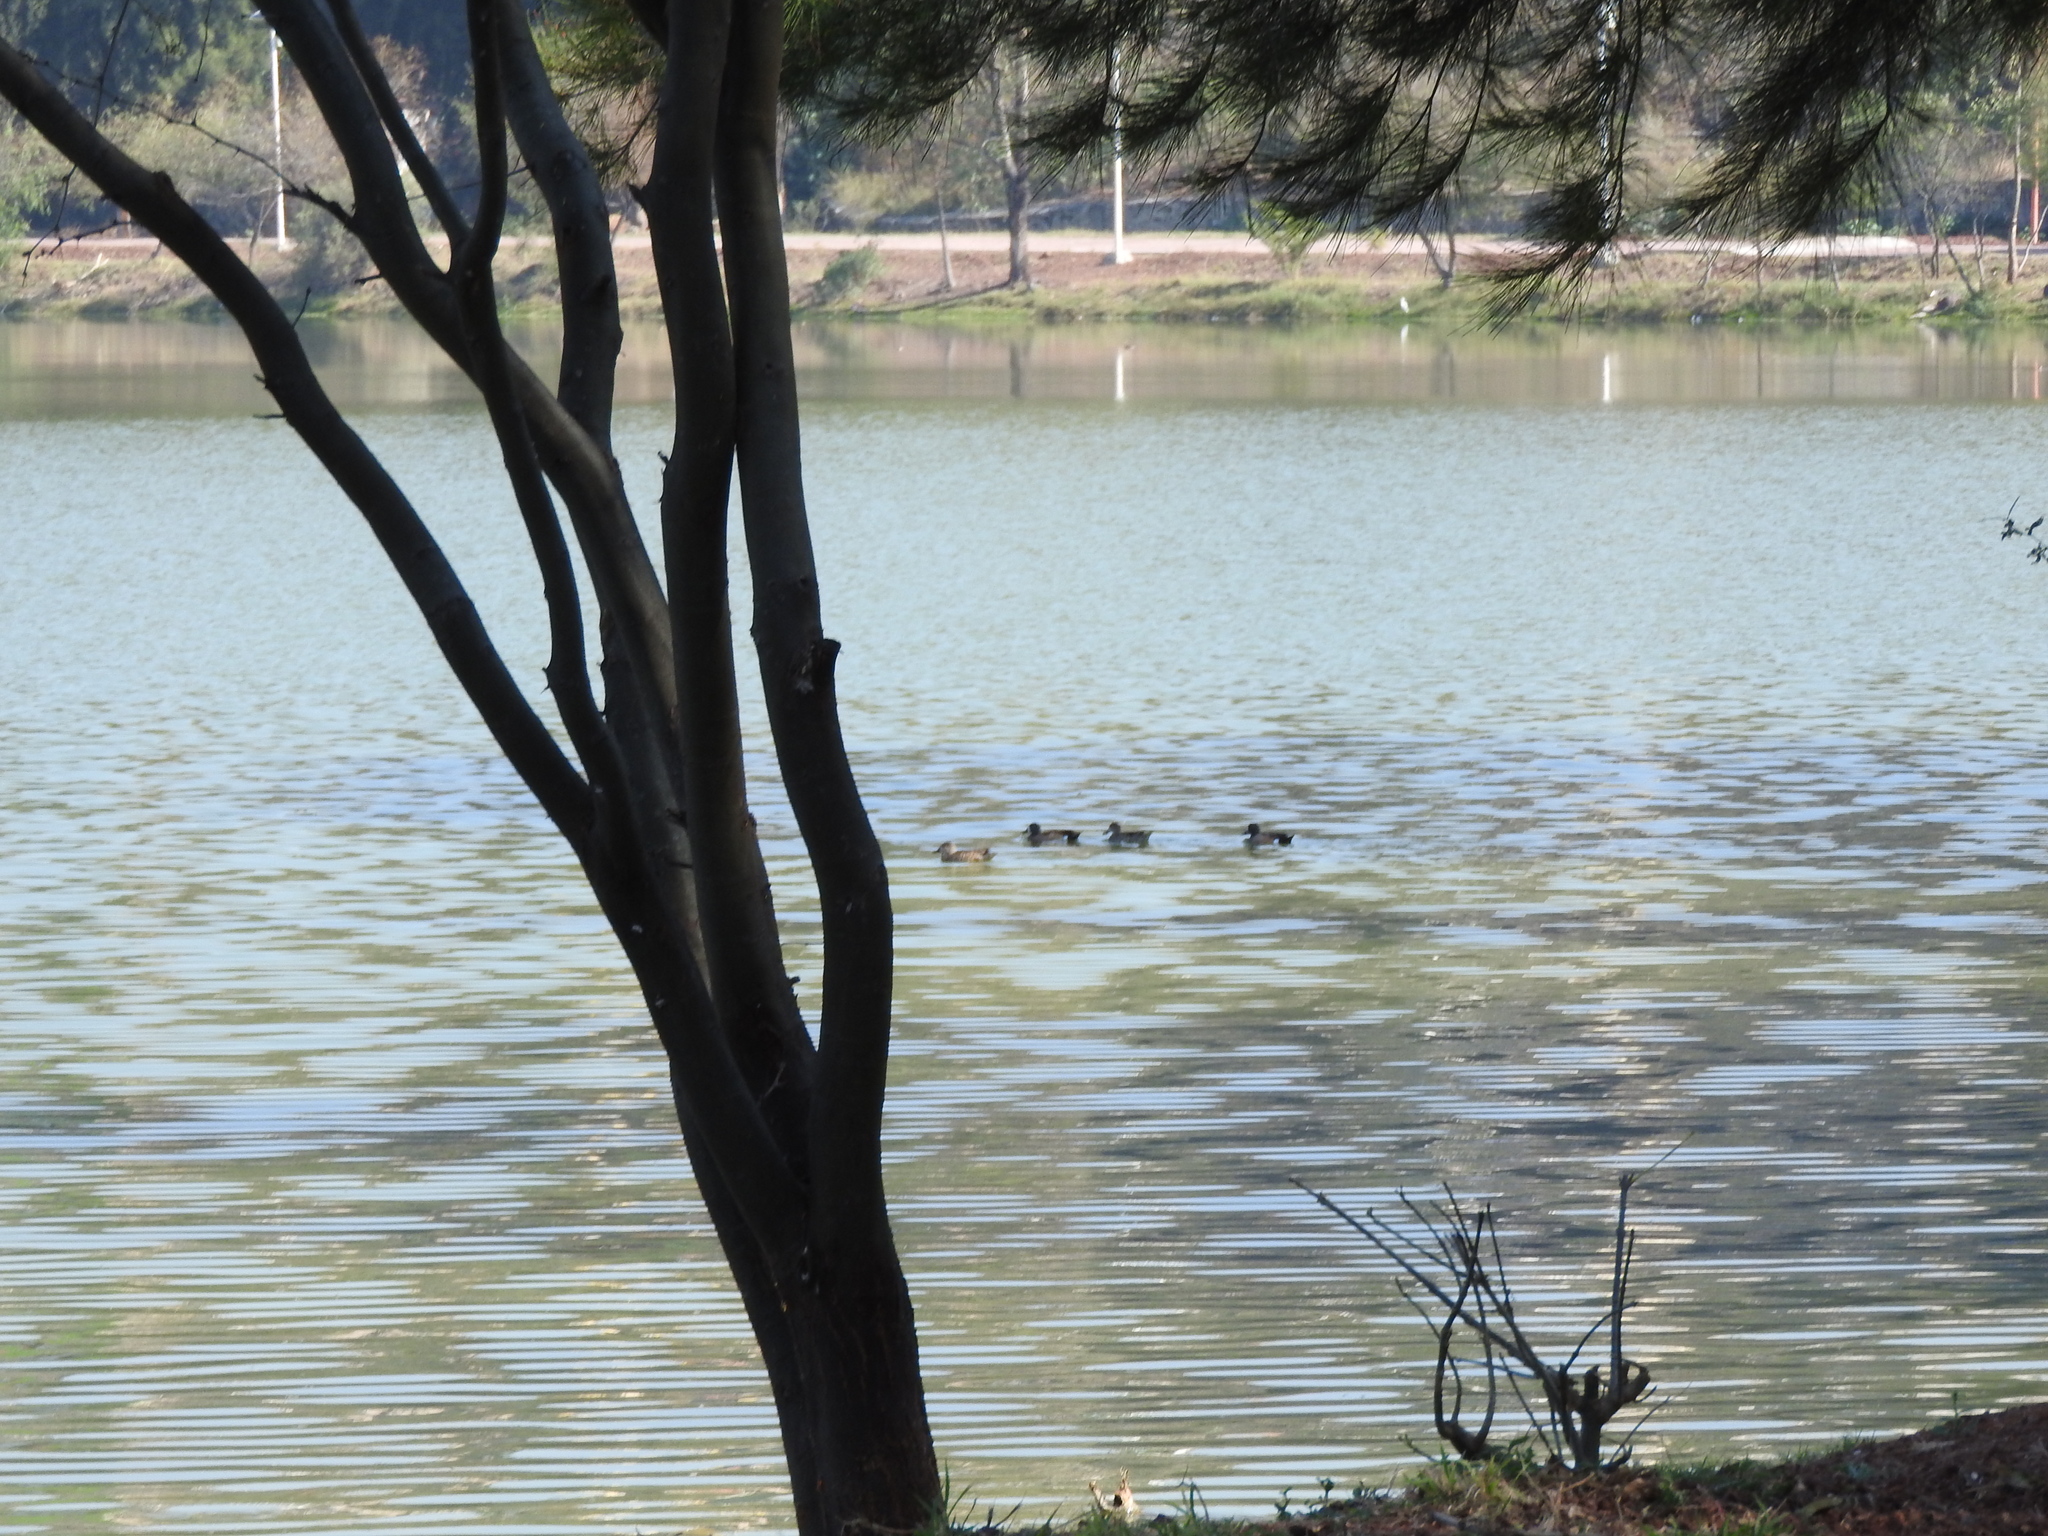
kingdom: Animalia
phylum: Chordata
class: Aves
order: Anseriformes
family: Anatidae
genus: Spatula
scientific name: Spatula discors
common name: Blue-winged teal
